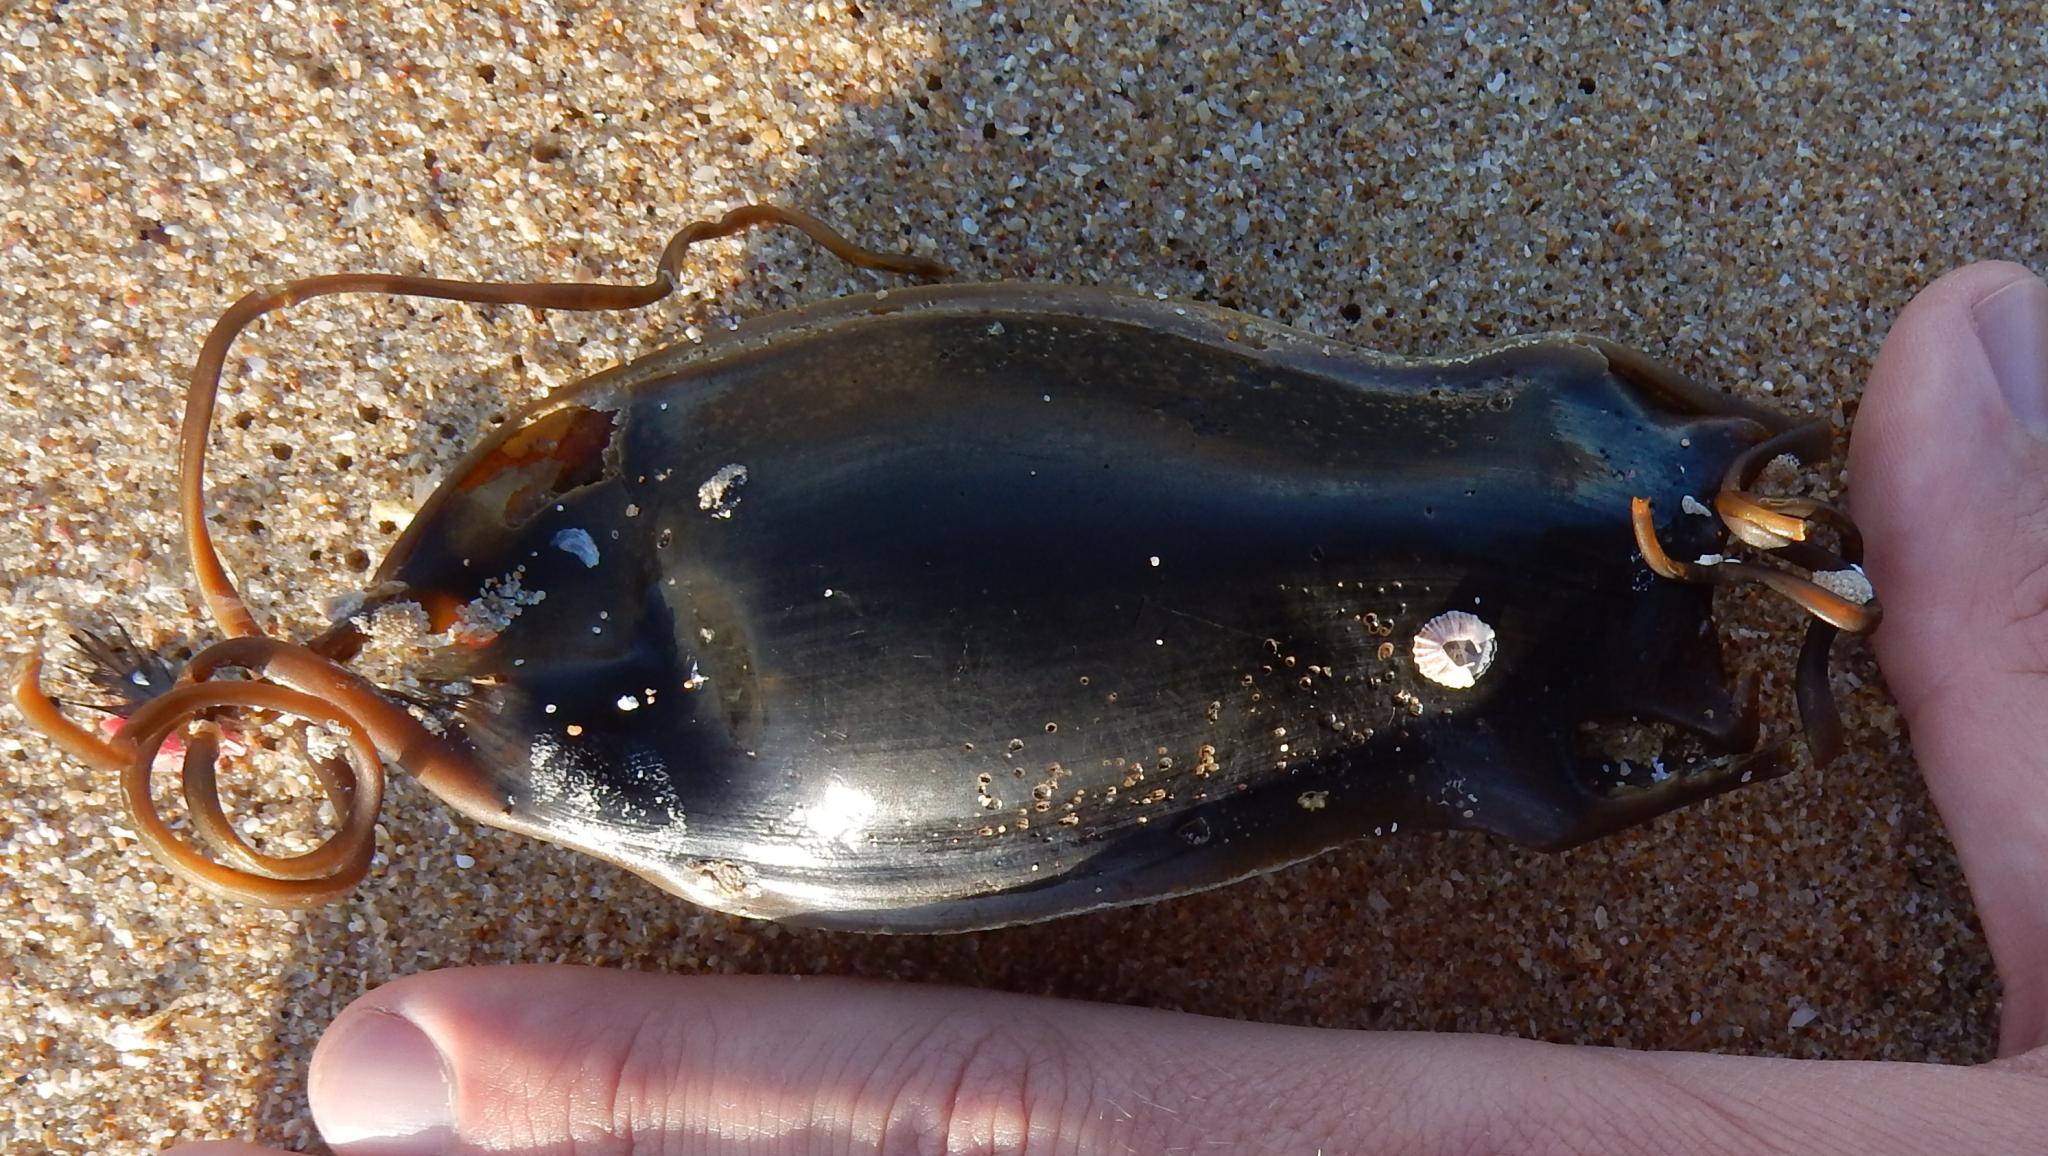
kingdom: Animalia
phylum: Chordata
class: Elasmobranchii
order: Carcharhiniformes
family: Scyliorhinidae
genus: Poroderma
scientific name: Poroderma africanum
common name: Pyjama shark
